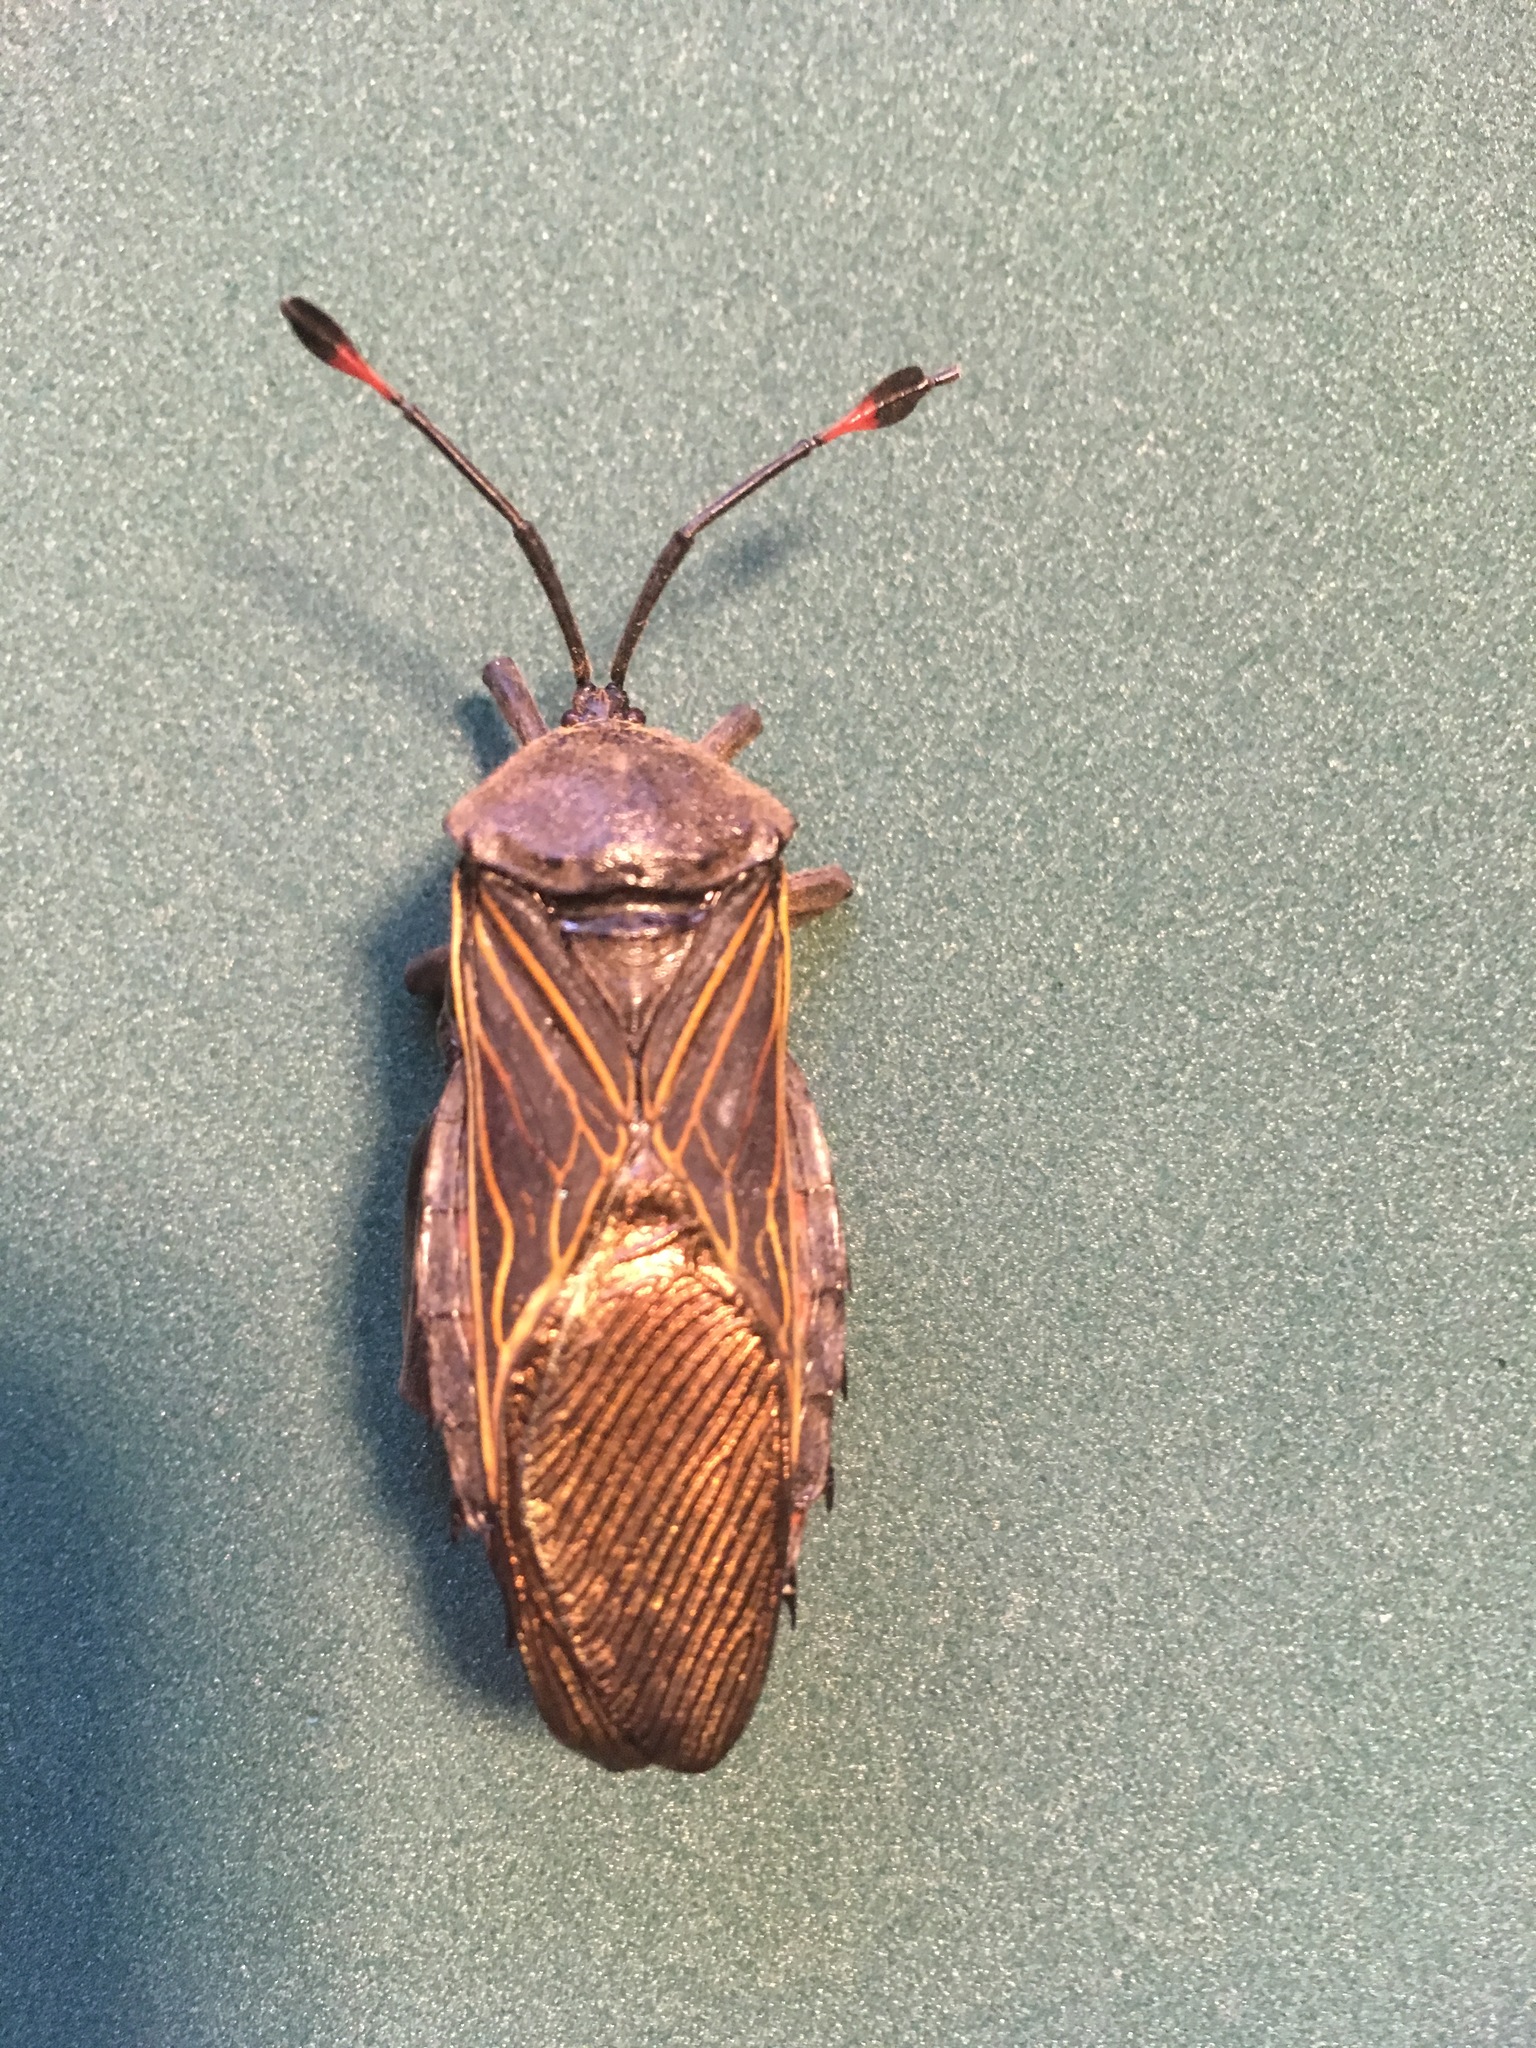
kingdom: Animalia
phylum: Arthropoda
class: Insecta
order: Hemiptera
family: Coreidae
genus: Thasus
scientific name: Thasus
